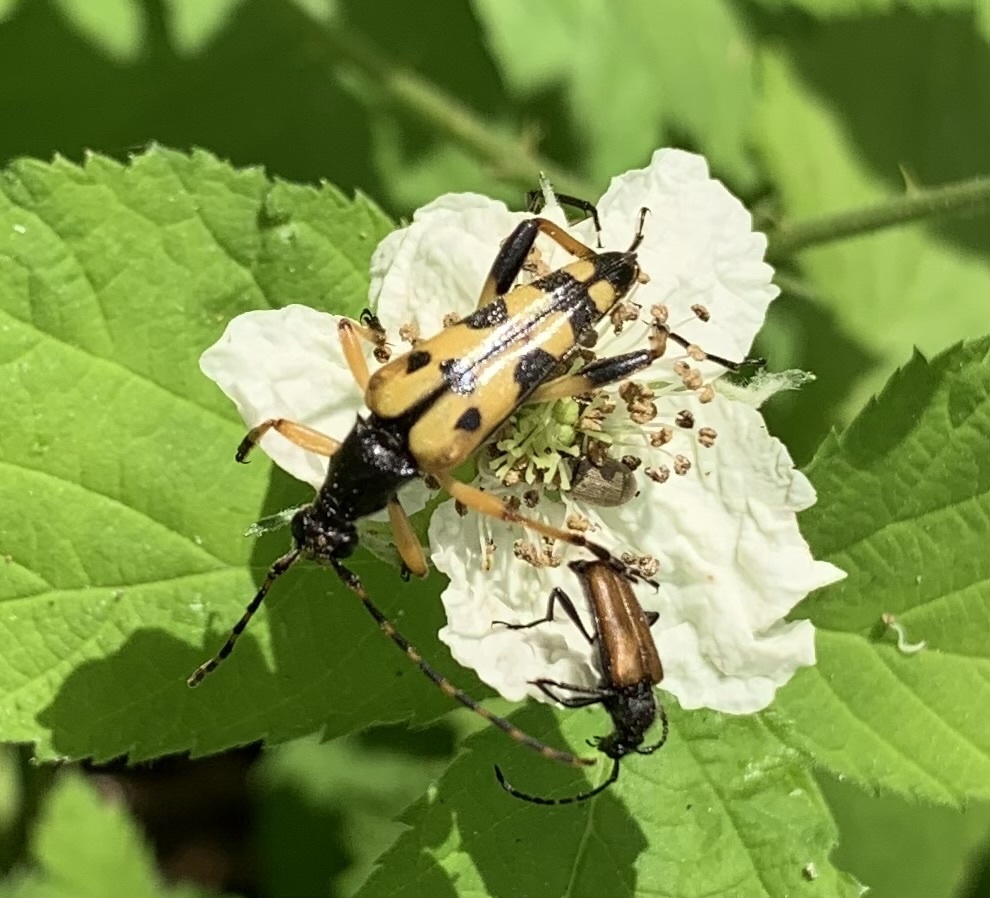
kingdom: Animalia
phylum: Arthropoda
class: Insecta
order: Coleoptera
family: Cerambycidae
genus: Rutpela
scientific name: Rutpela maculata
